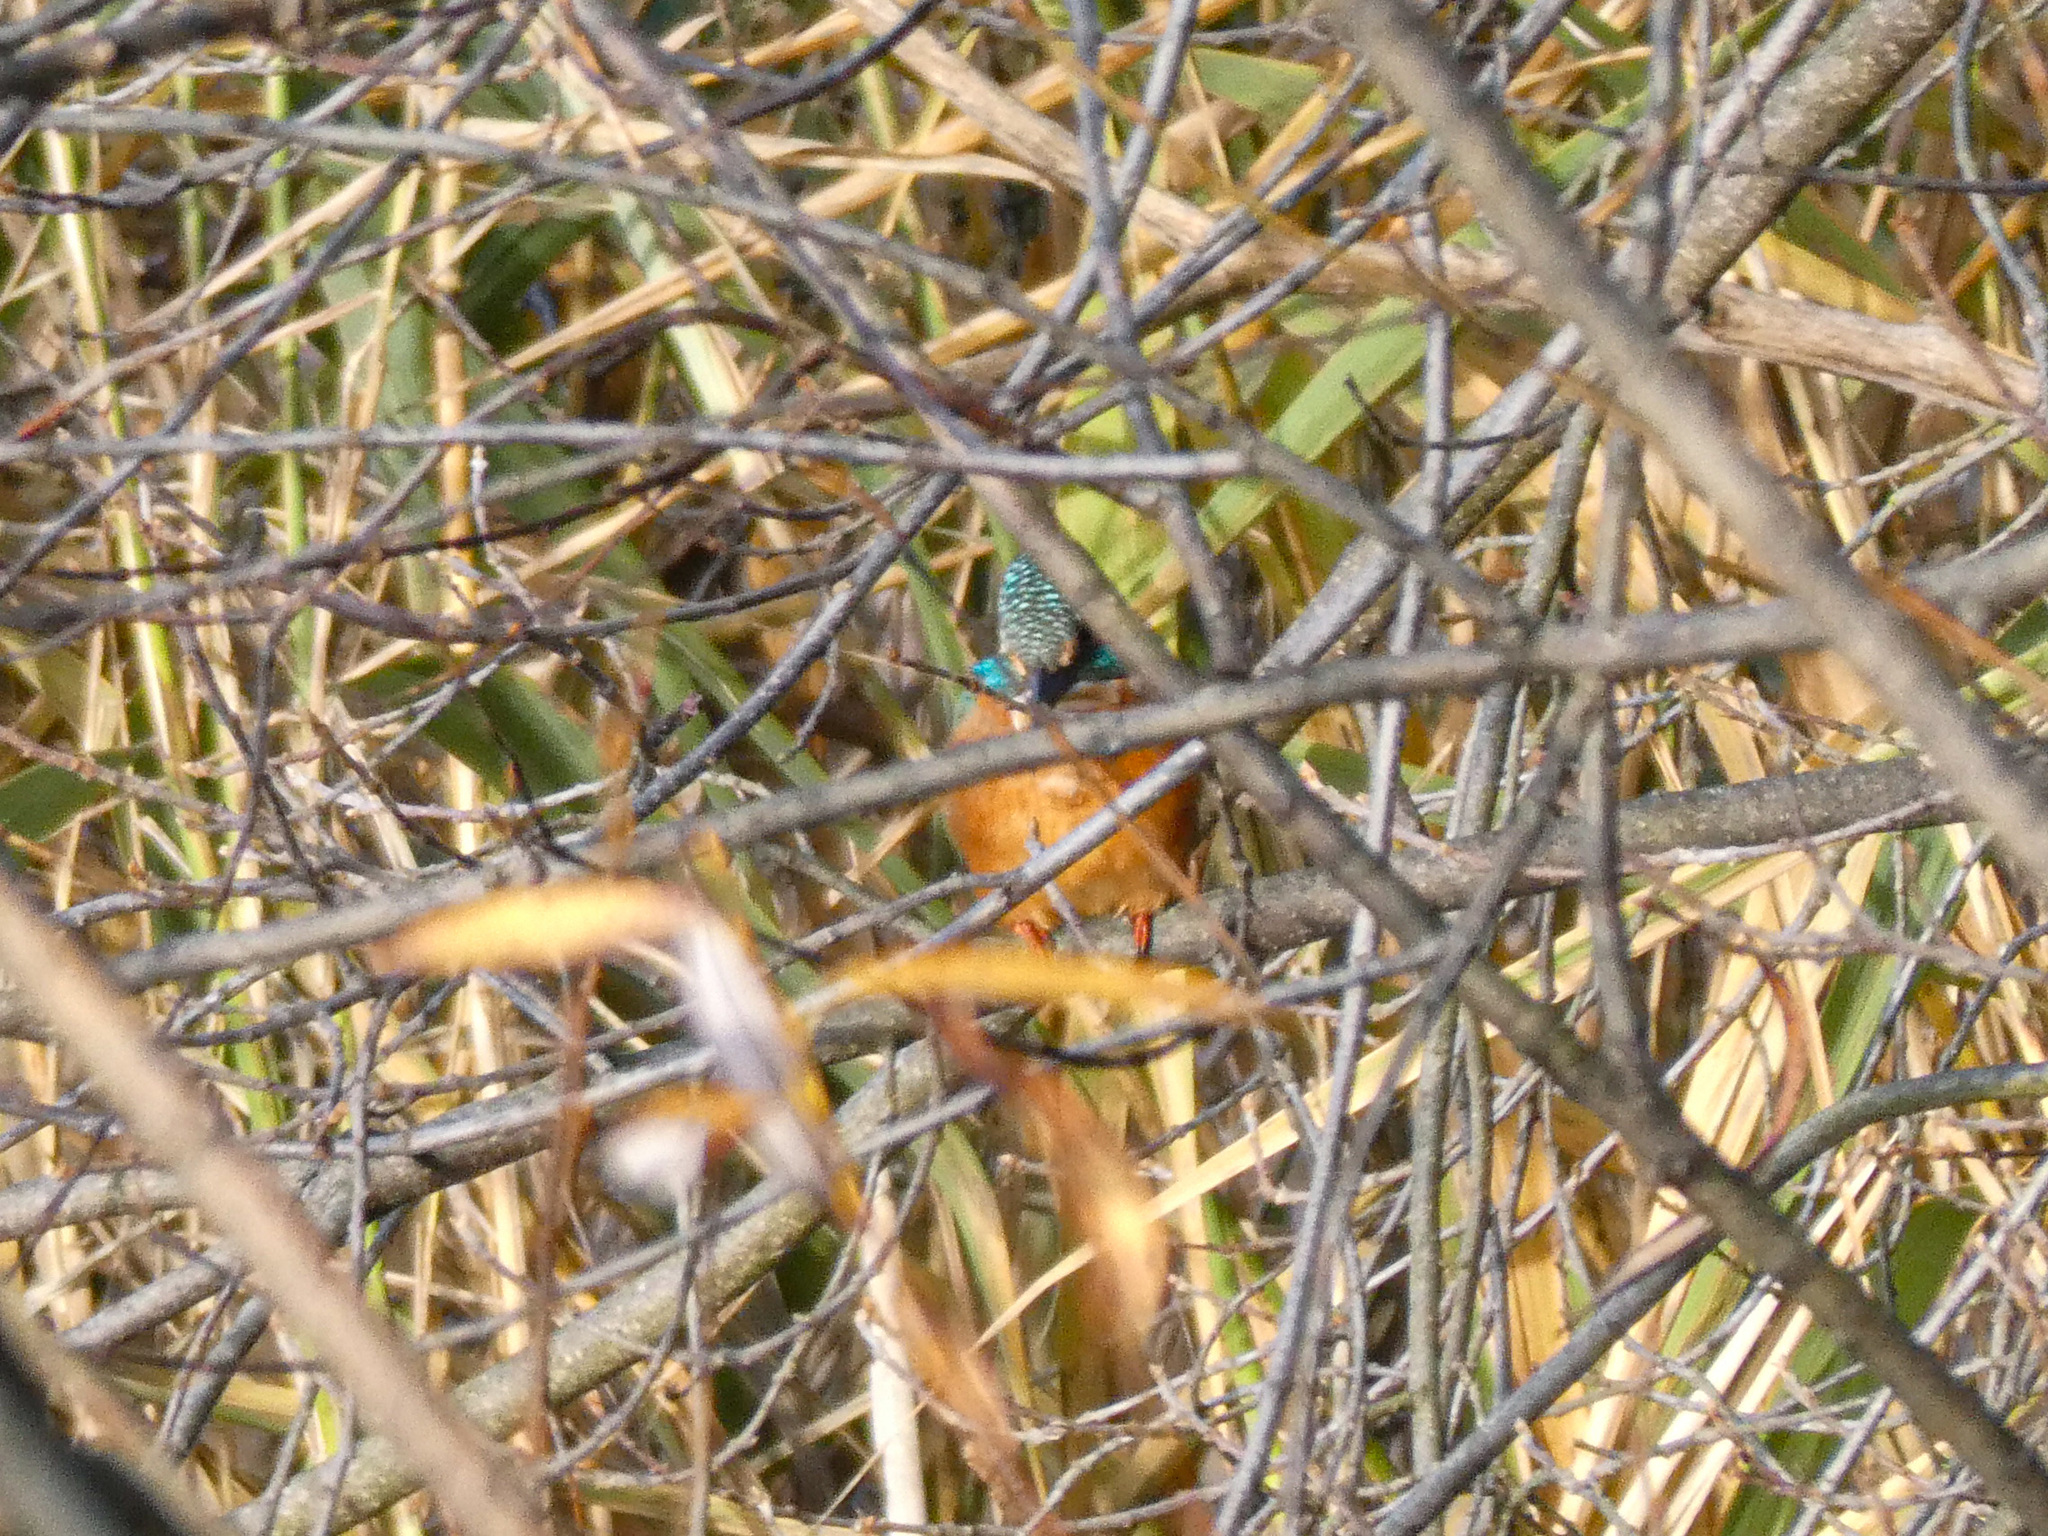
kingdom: Animalia
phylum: Chordata
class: Aves
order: Coraciiformes
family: Alcedinidae
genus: Alcedo
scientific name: Alcedo atthis
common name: Common kingfisher
